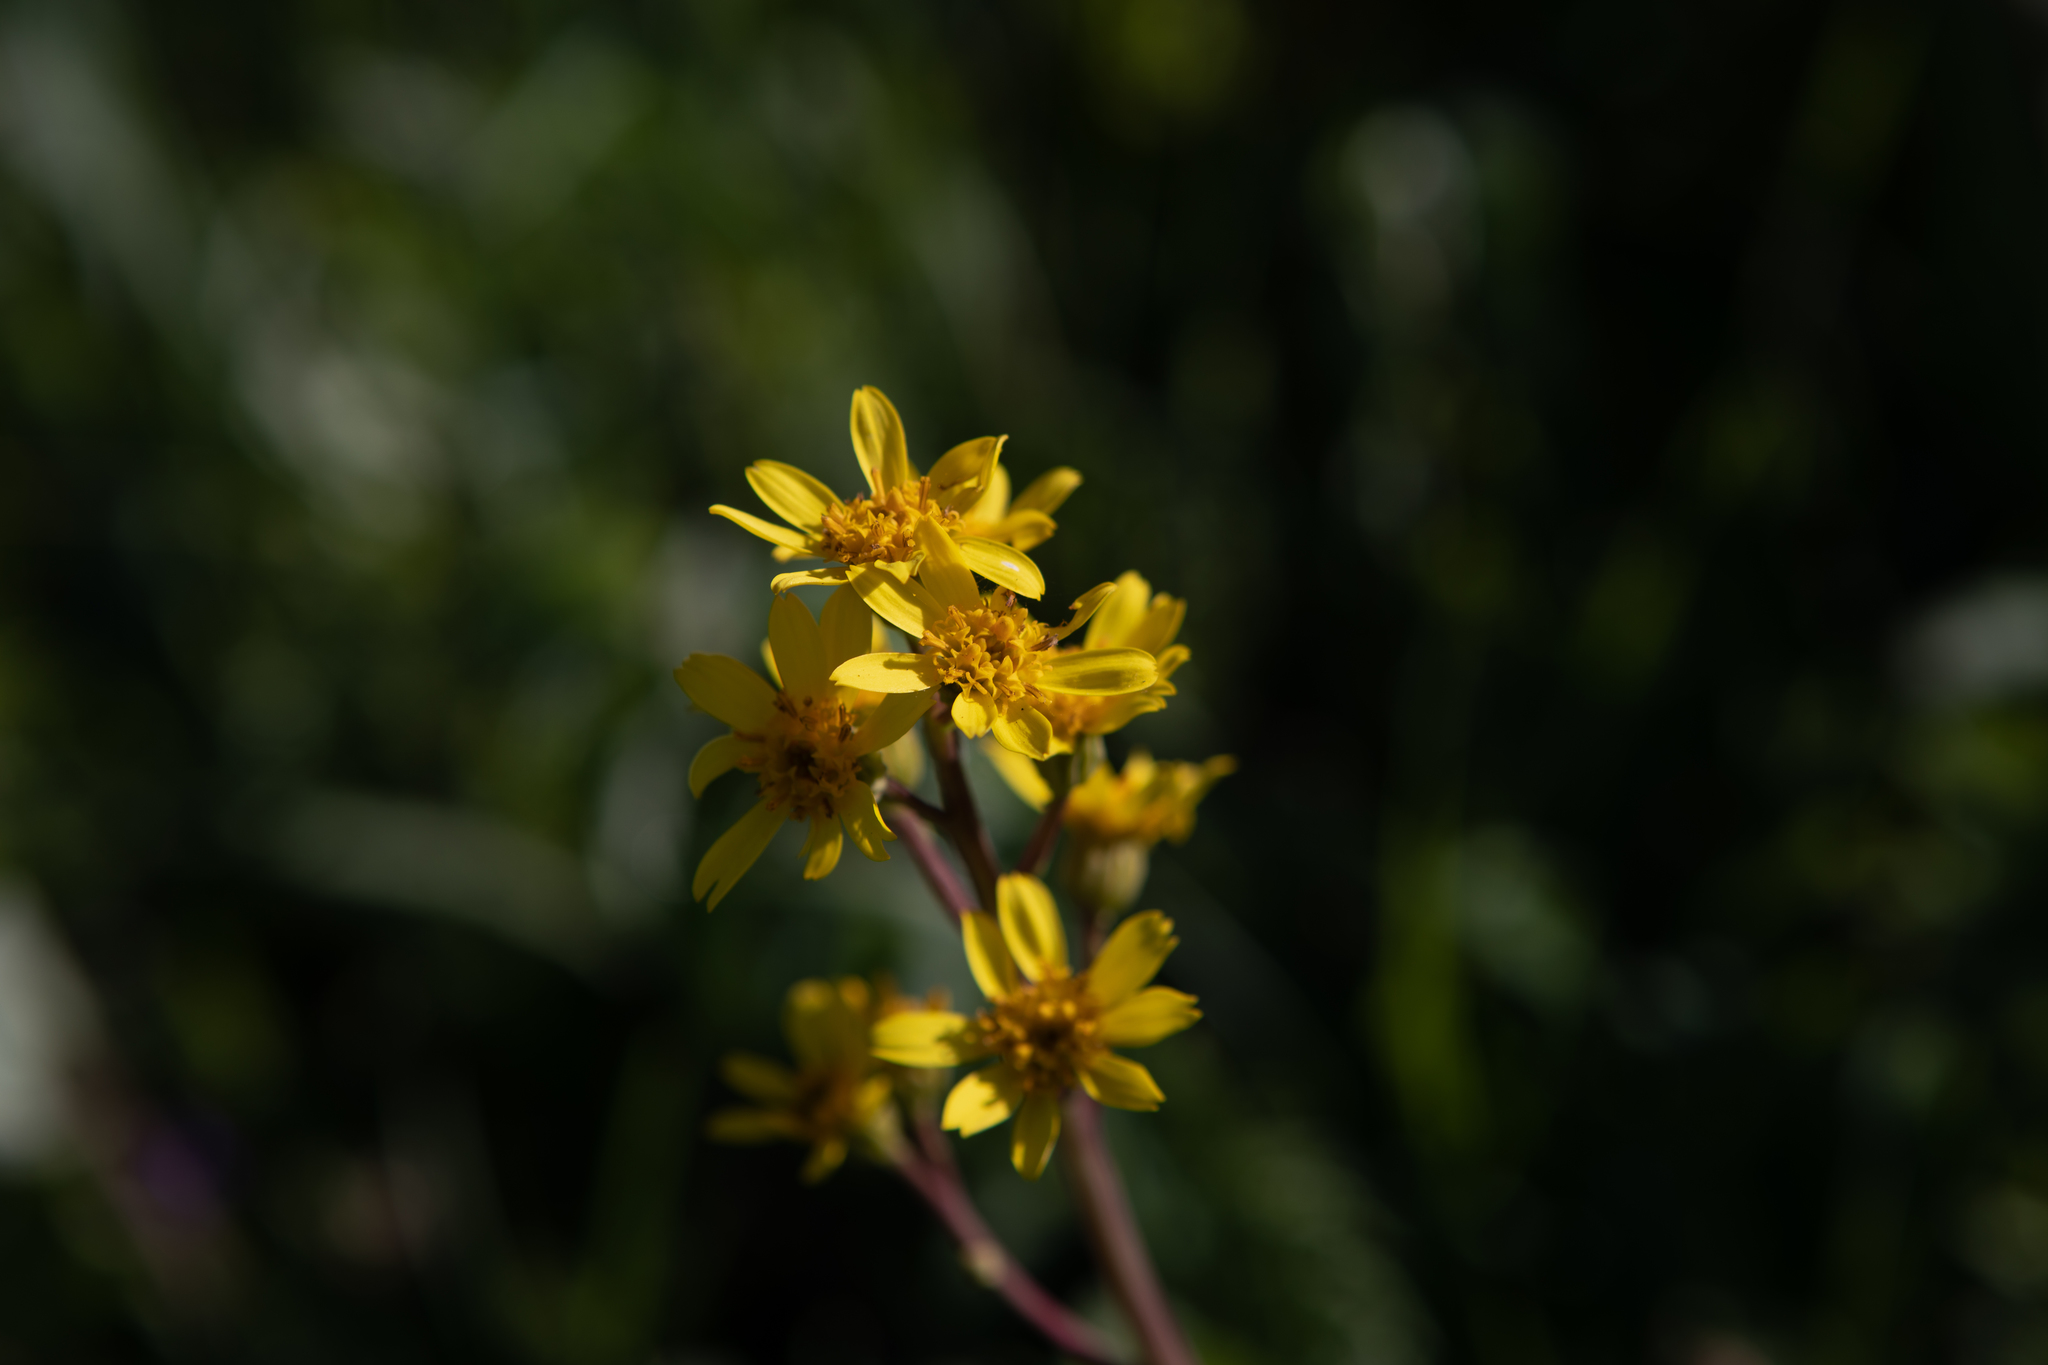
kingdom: Plantae
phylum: Tracheophyta
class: Magnoliopsida
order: Asterales
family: Asteraceae
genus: Ligularia
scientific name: Ligularia glauca
